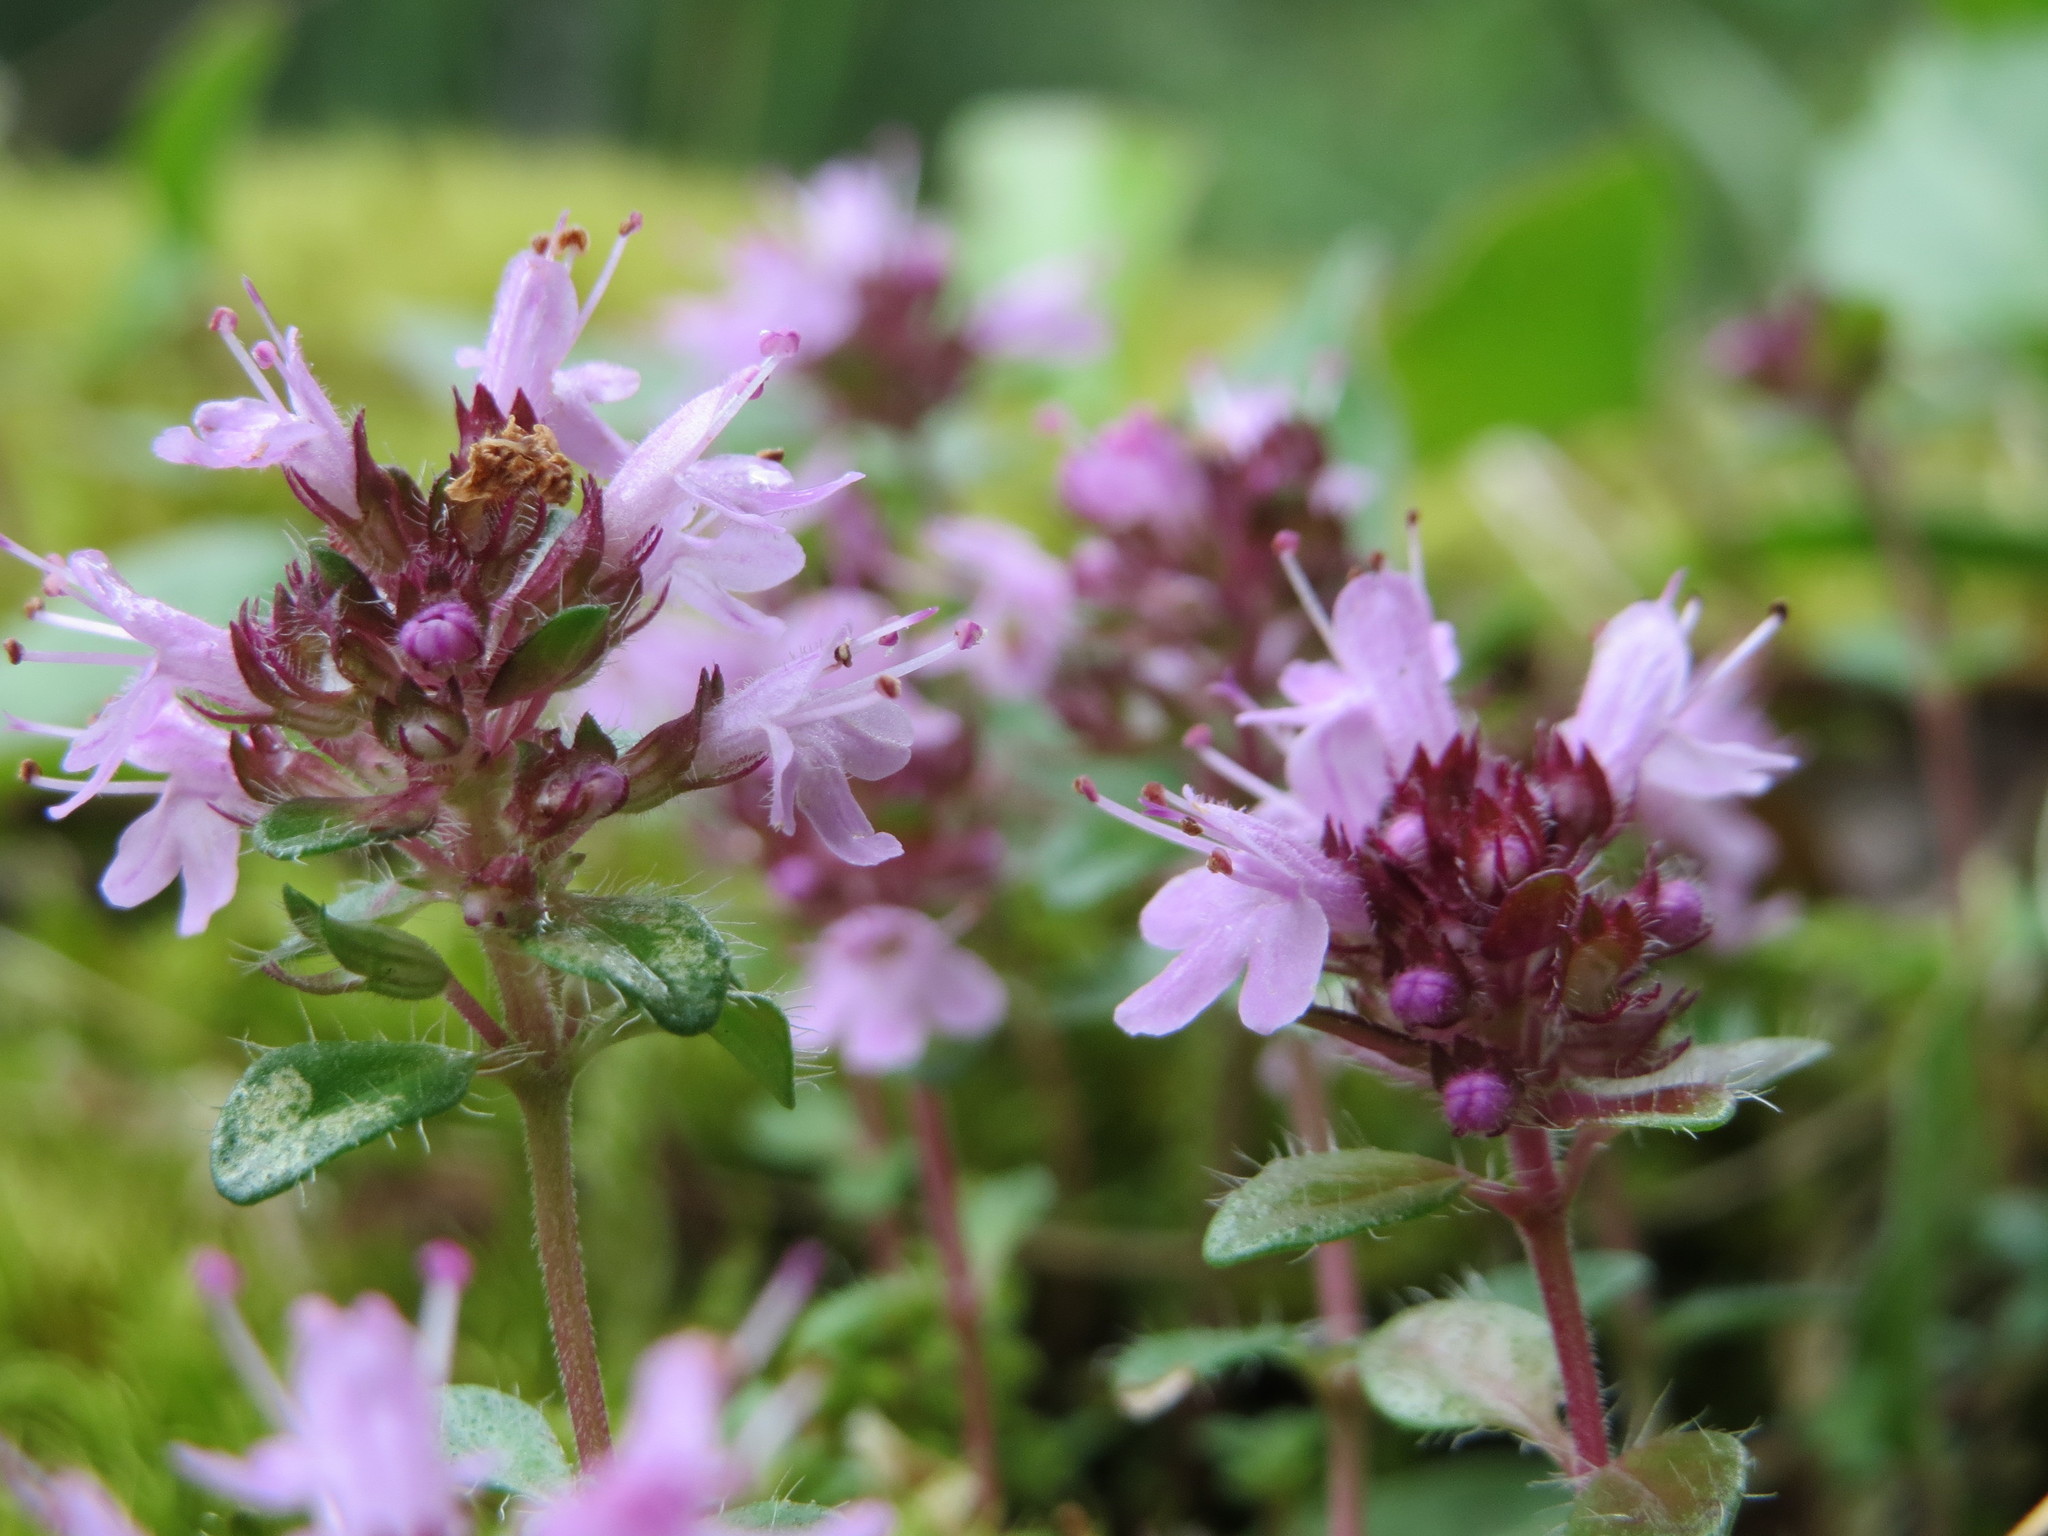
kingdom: Plantae
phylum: Tracheophyta
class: Magnoliopsida
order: Lamiales
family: Lamiaceae
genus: Thymus
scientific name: Thymus serpyllum
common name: Breckland thyme
